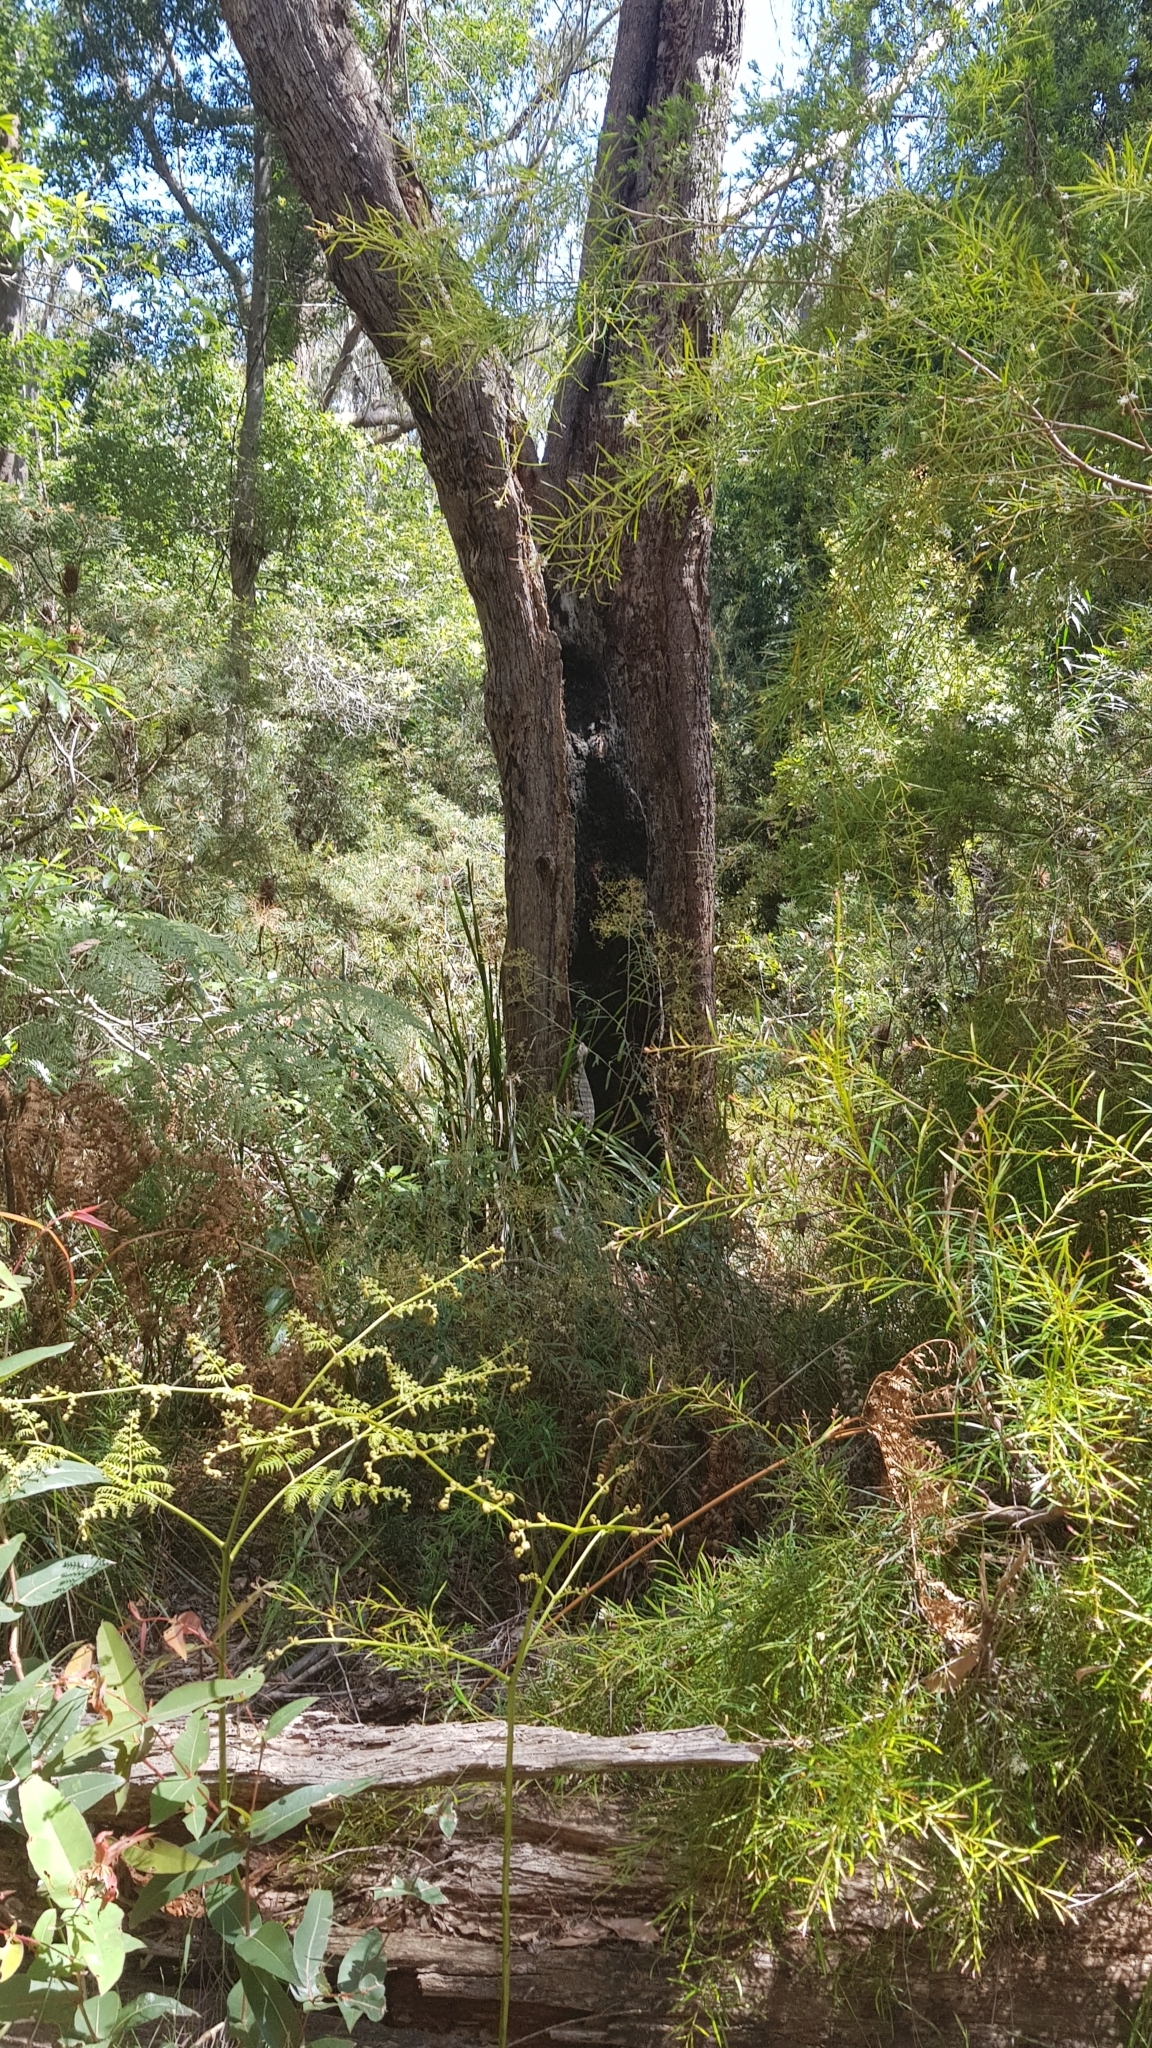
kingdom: Animalia
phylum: Chordata
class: Squamata
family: Varanidae
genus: Varanus
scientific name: Varanus varius
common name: Lace monitor
